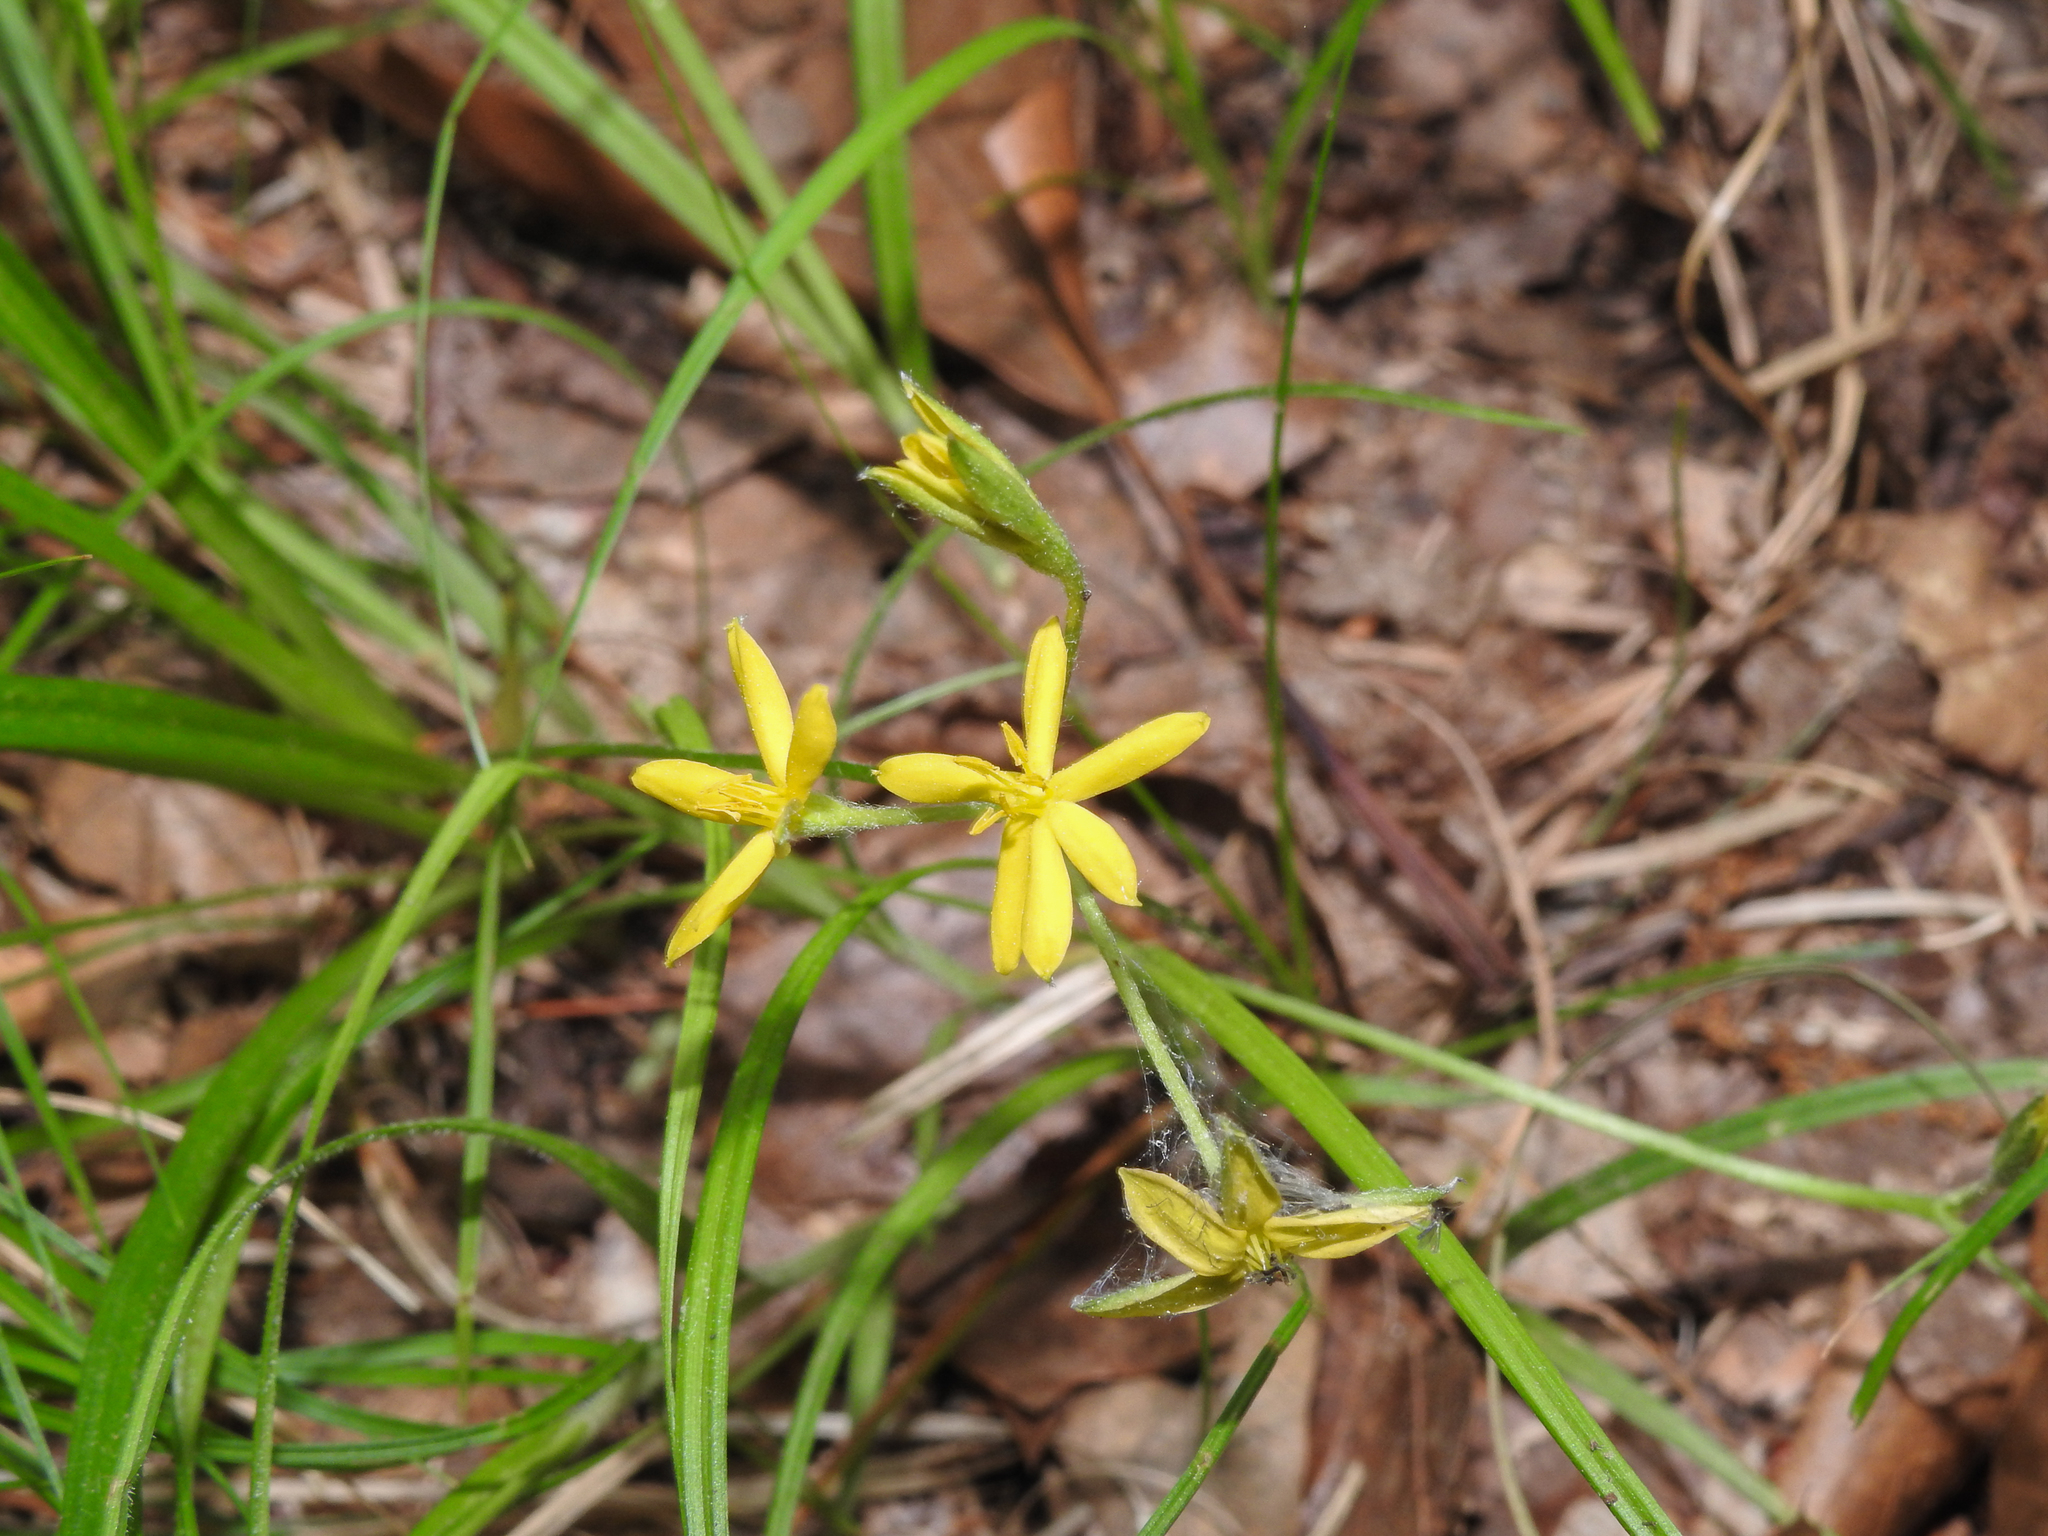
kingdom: Plantae
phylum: Tracheophyta
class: Liliopsida
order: Asparagales
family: Hypoxidaceae
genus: Hypoxis
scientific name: Hypoxis hirsuta
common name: Common goldstar
